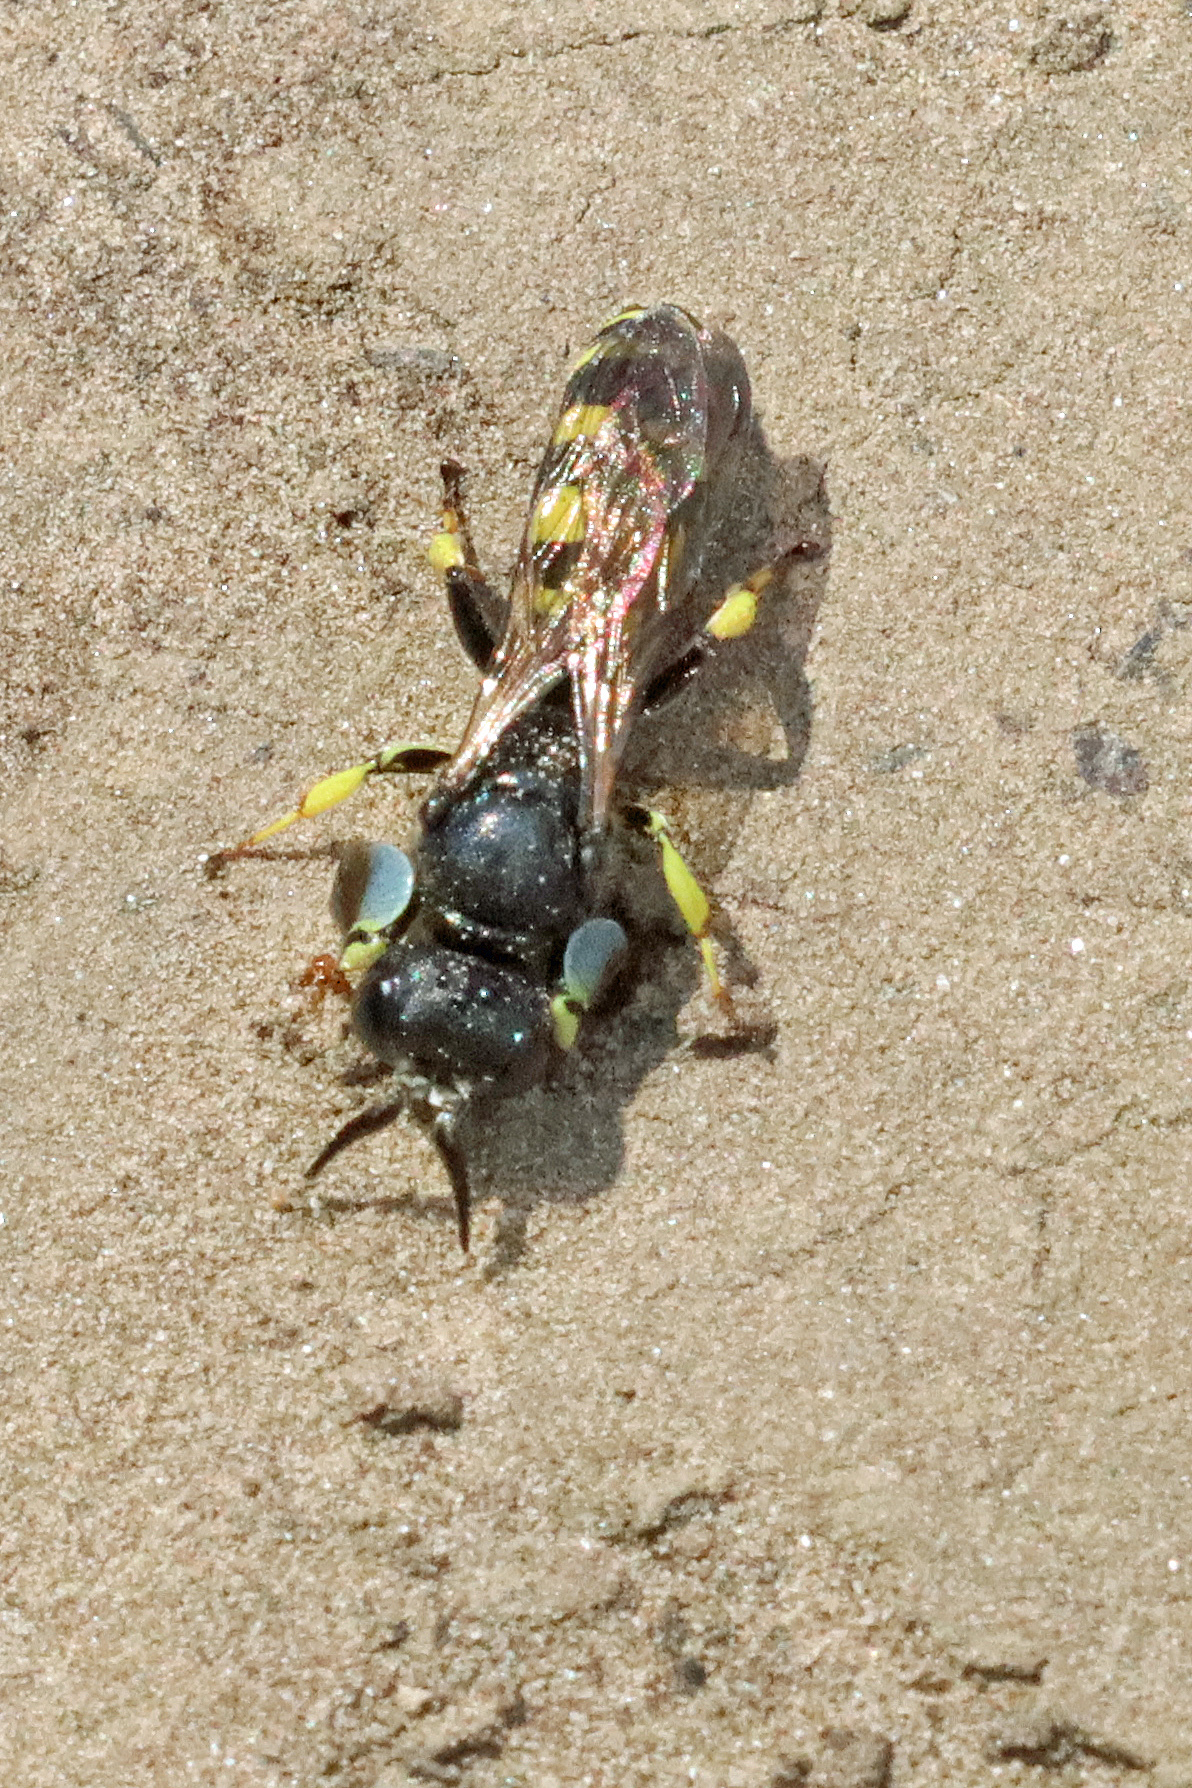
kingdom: Animalia
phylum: Arthropoda
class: Insecta
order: Hymenoptera
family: Crabronidae
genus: Crabro
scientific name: Crabro peltarius
